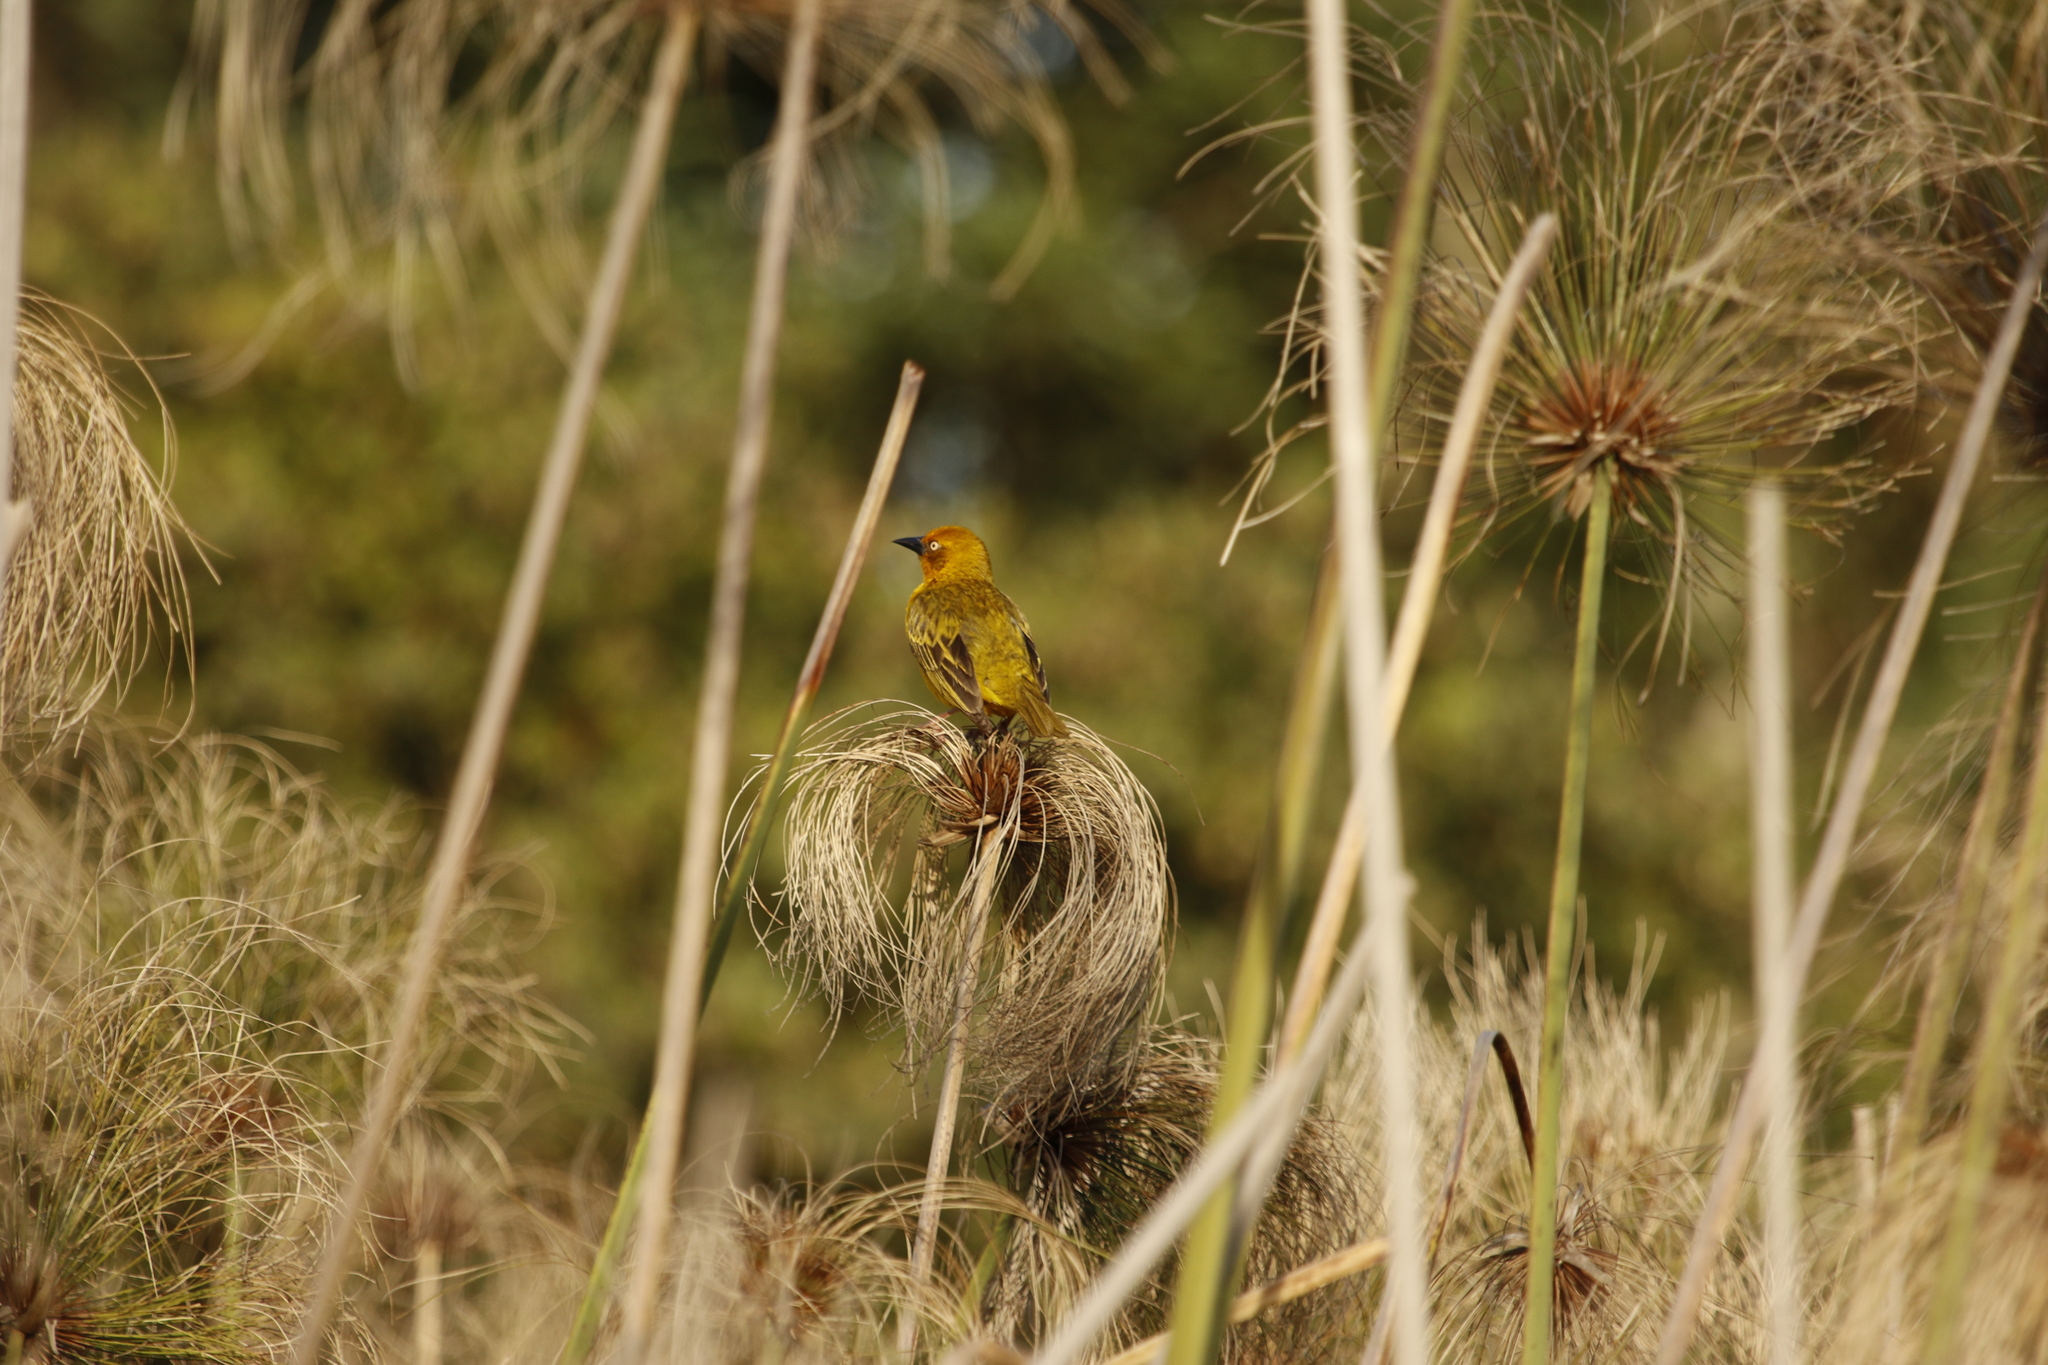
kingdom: Animalia
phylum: Chordata
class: Aves
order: Passeriformes
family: Ploceidae
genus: Ploceus
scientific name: Ploceus capensis
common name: Cape weaver
